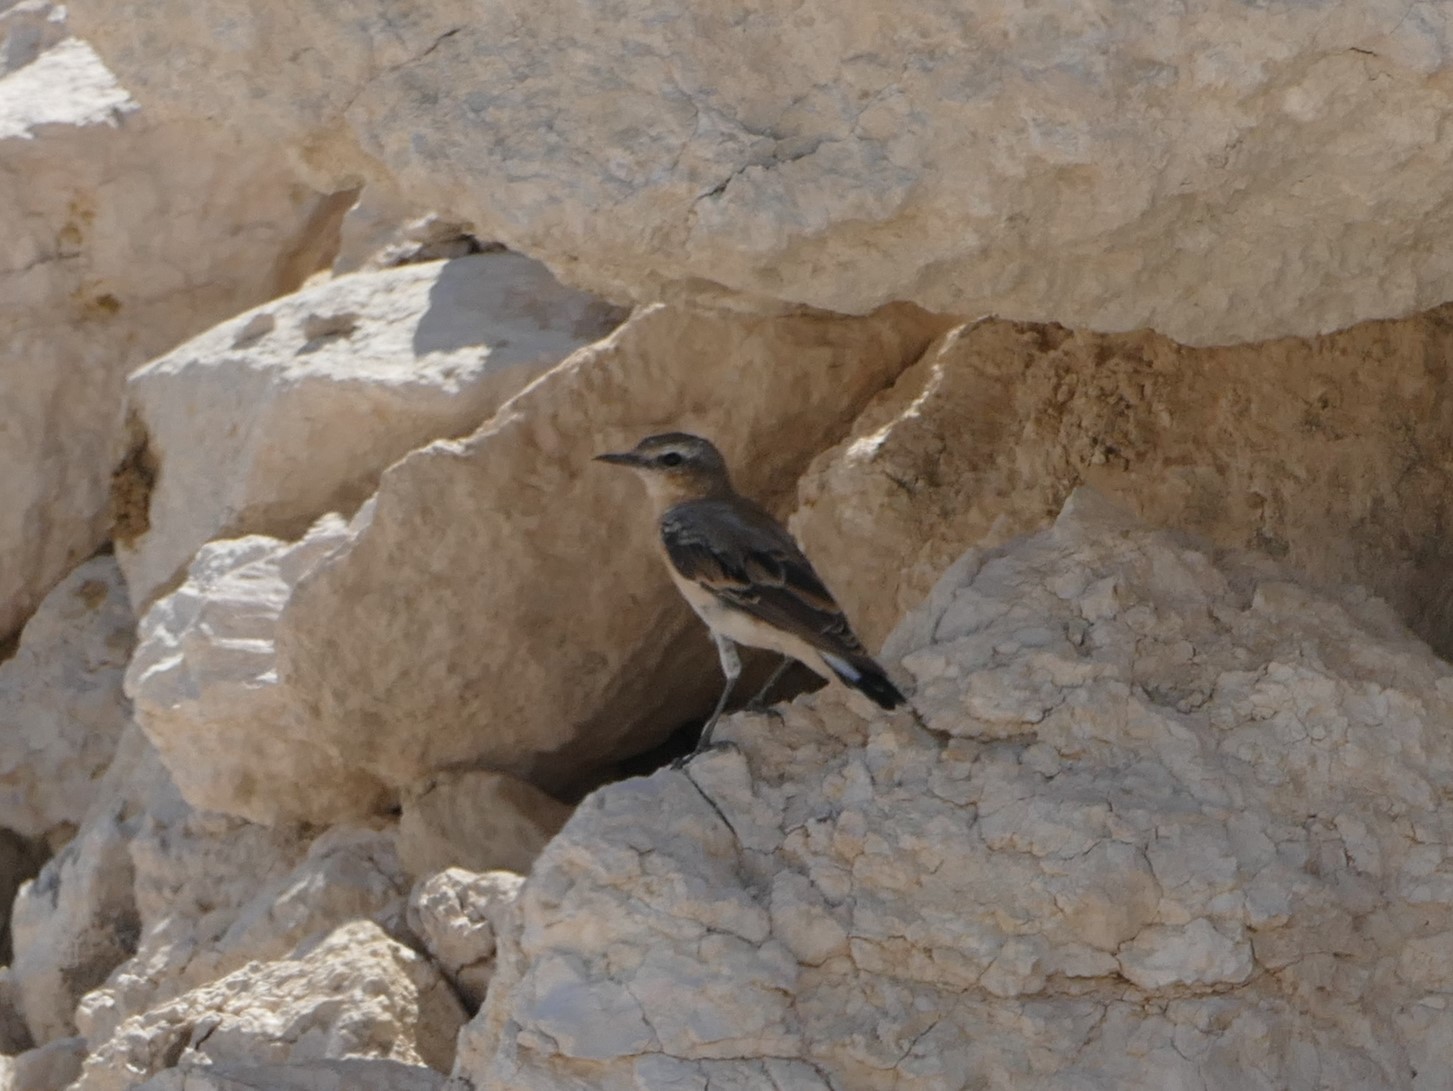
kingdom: Animalia
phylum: Chordata
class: Aves
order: Passeriformes
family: Muscicapidae
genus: Oenanthe
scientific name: Oenanthe oenanthe
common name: Northern wheatear
